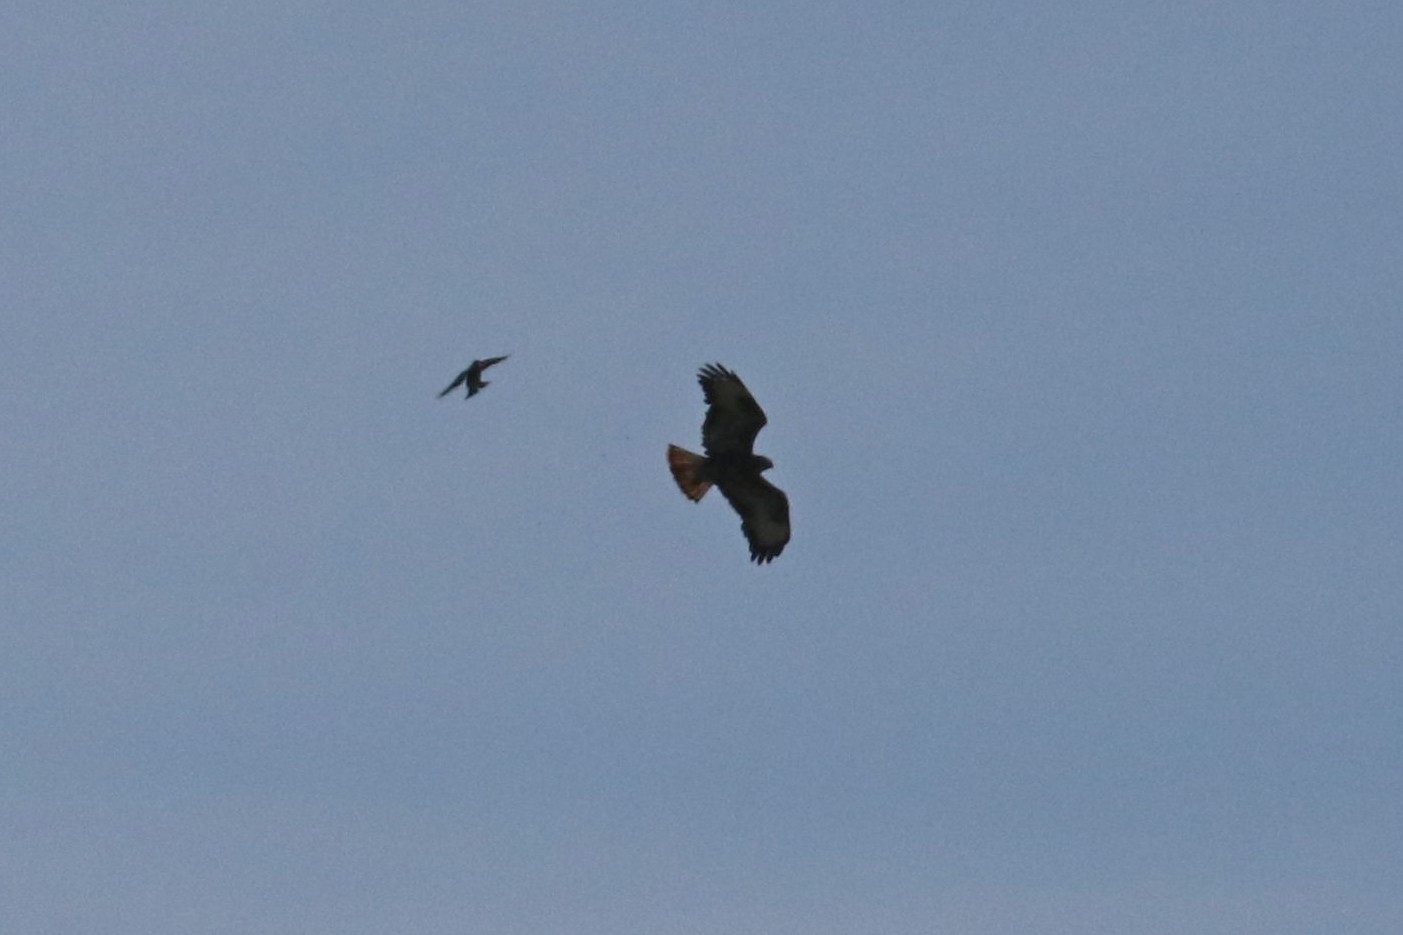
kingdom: Animalia
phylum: Chordata
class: Aves
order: Accipitriformes
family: Accipitridae
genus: Buteo
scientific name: Buteo buteo
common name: Common buzzard
